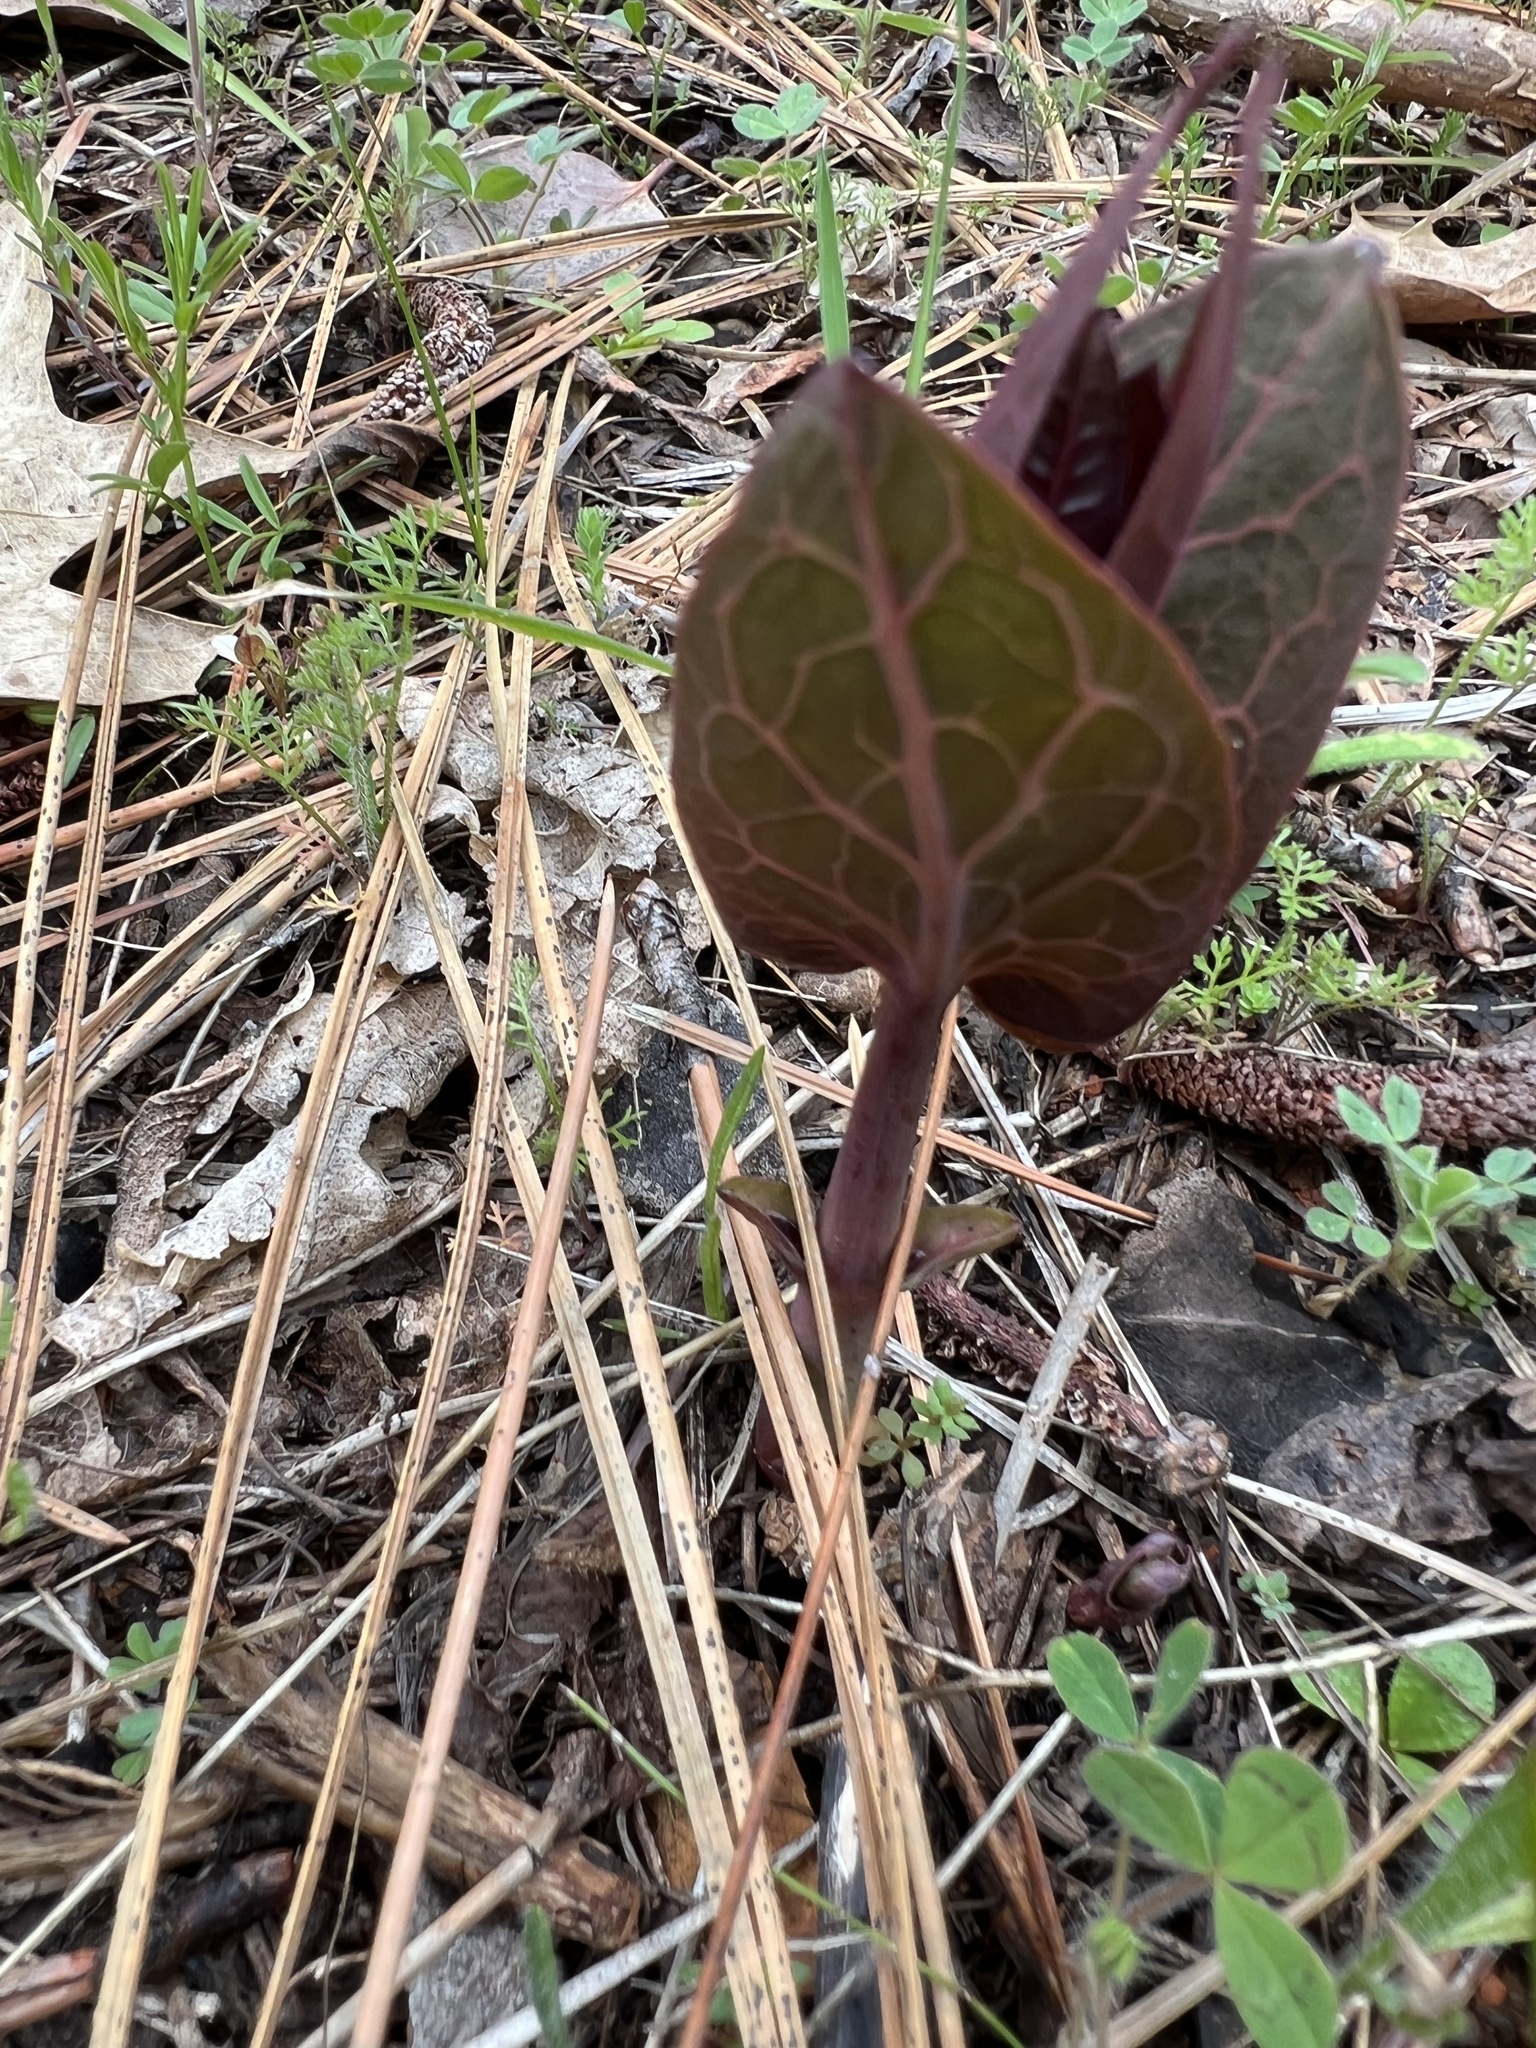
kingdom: Plantae
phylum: Tracheophyta
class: Magnoliopsida
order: Gentianales
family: Apocynaceae
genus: Asclepias
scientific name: Asclepias cordifolia
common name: Purple milkweed
